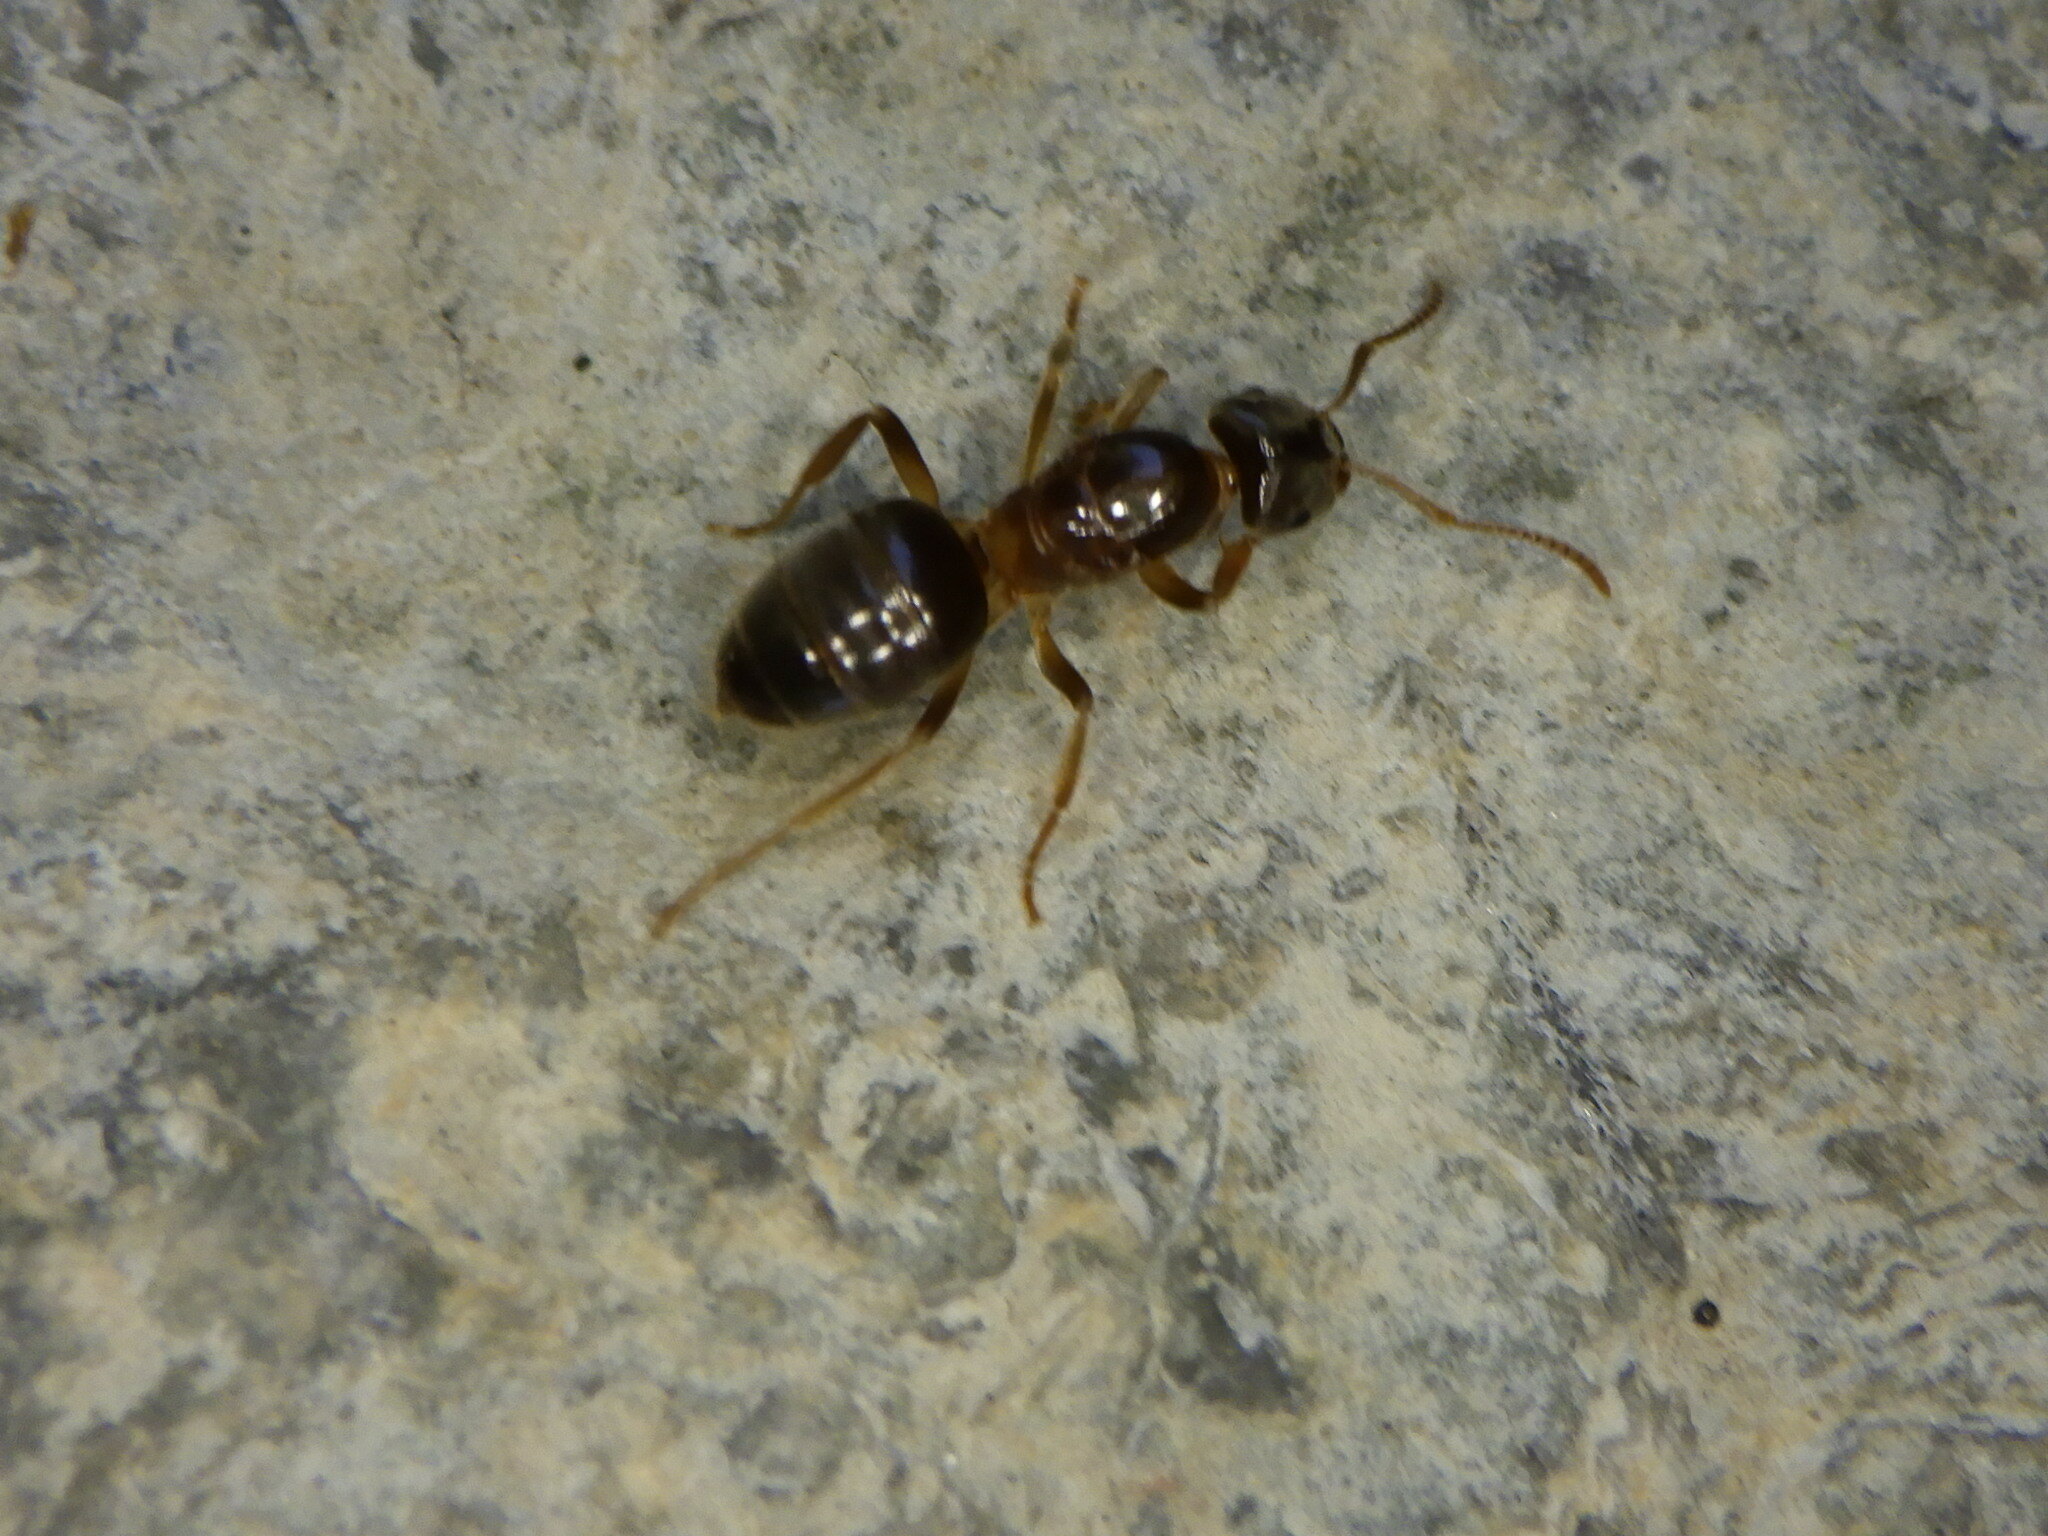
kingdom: Animalia
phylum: Arthropoda
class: Insecta
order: Hymenoptera
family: Formicidae
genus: Chthonolasius
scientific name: Chthonolasius
